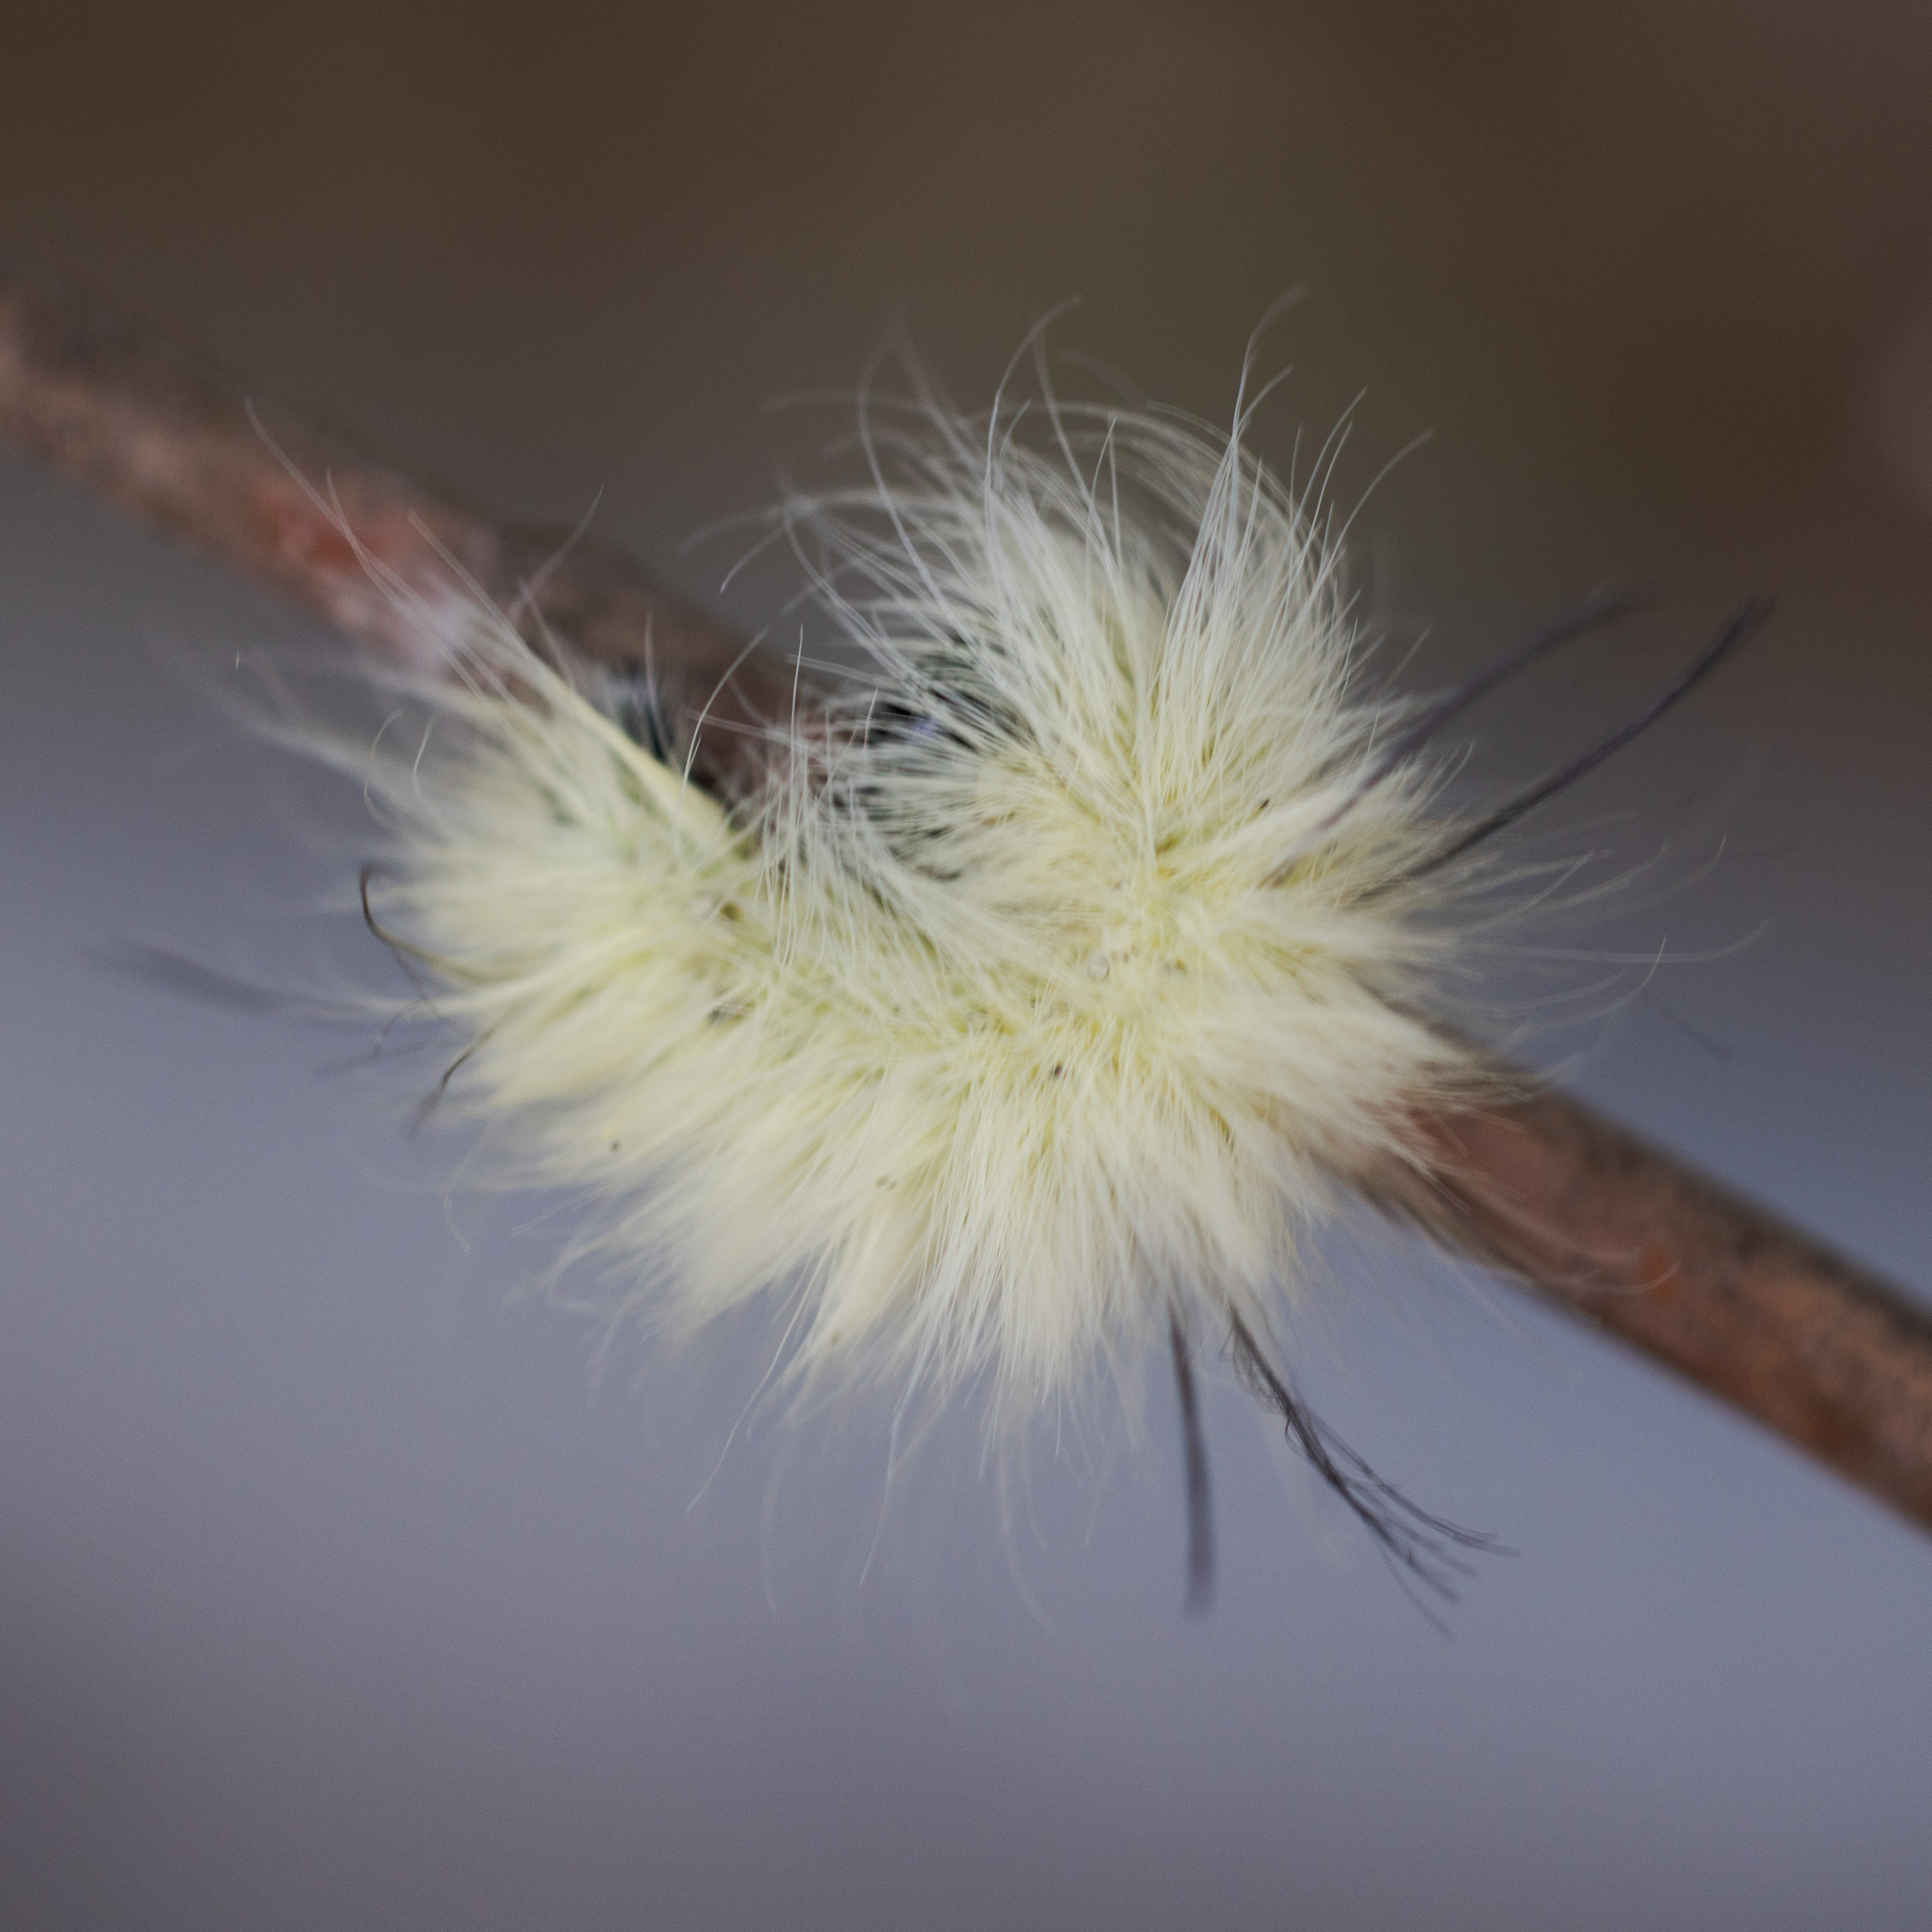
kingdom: Animalia
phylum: Arthropoda
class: Insecta
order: Lepidoptera
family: Noctuidae
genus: Acronicta
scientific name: Acronicta americana
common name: American dagger
